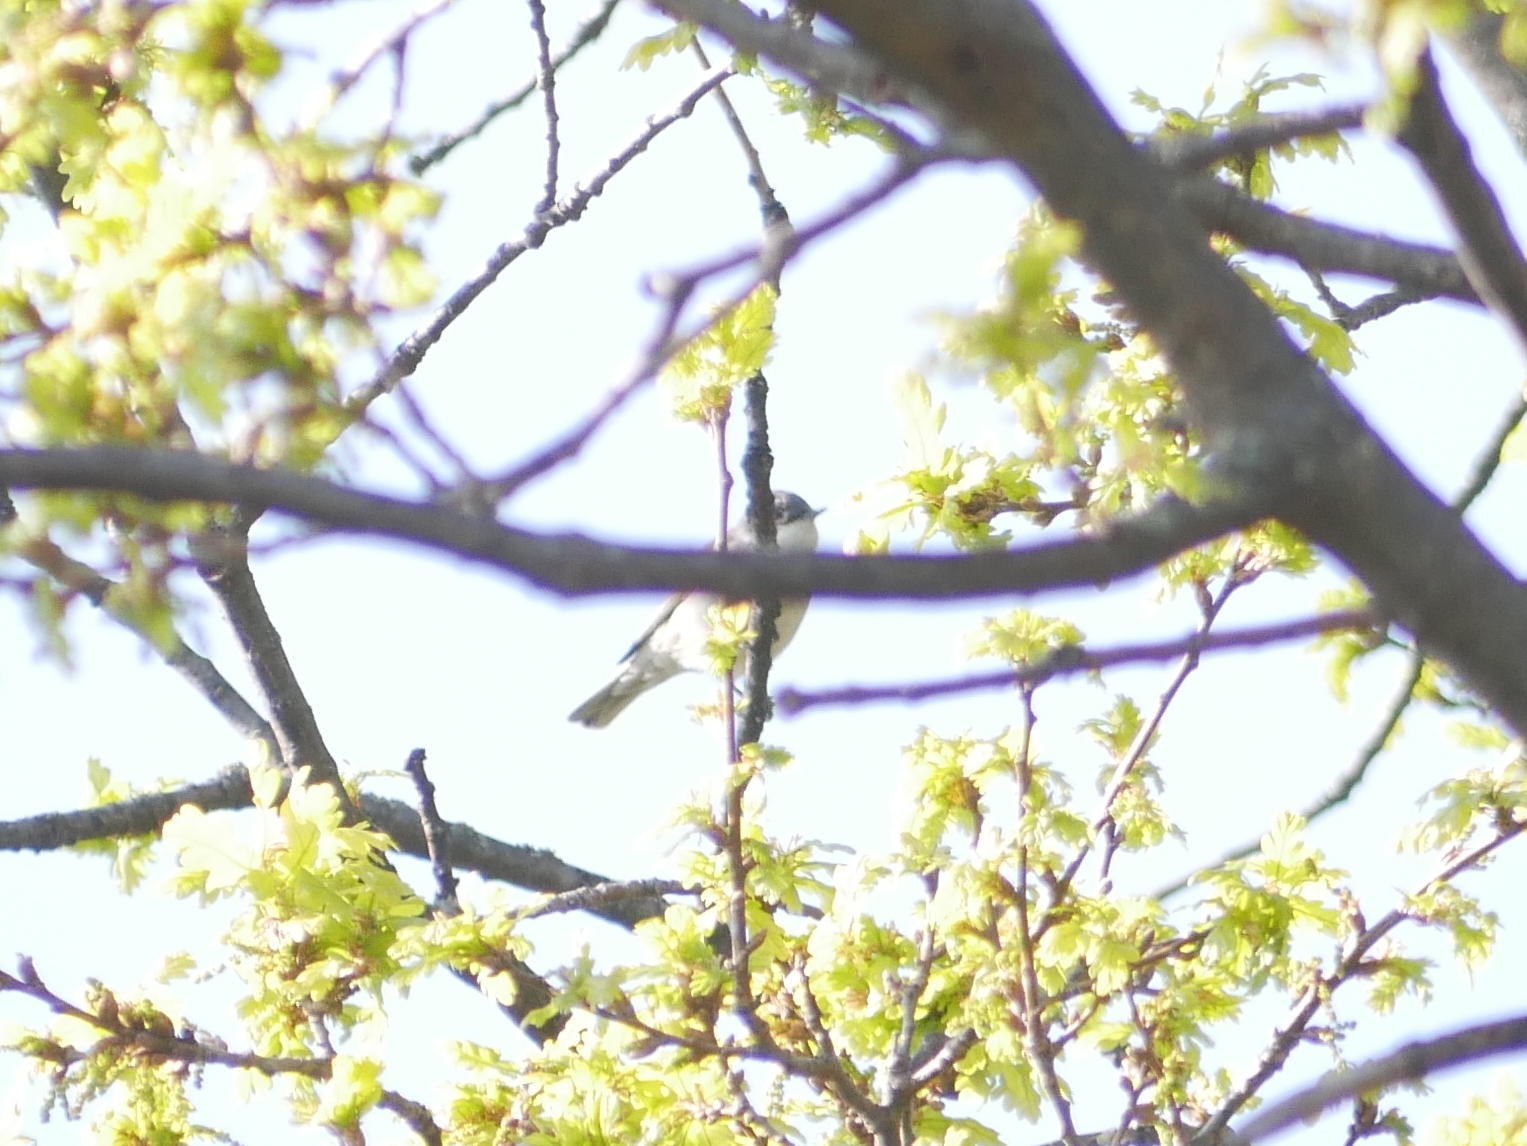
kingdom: Animalia
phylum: Chordata
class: Aves
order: Passeriformes
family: Sylviidae
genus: Sylvia
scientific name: Sylvia curruca
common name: Lesser whitethroat
